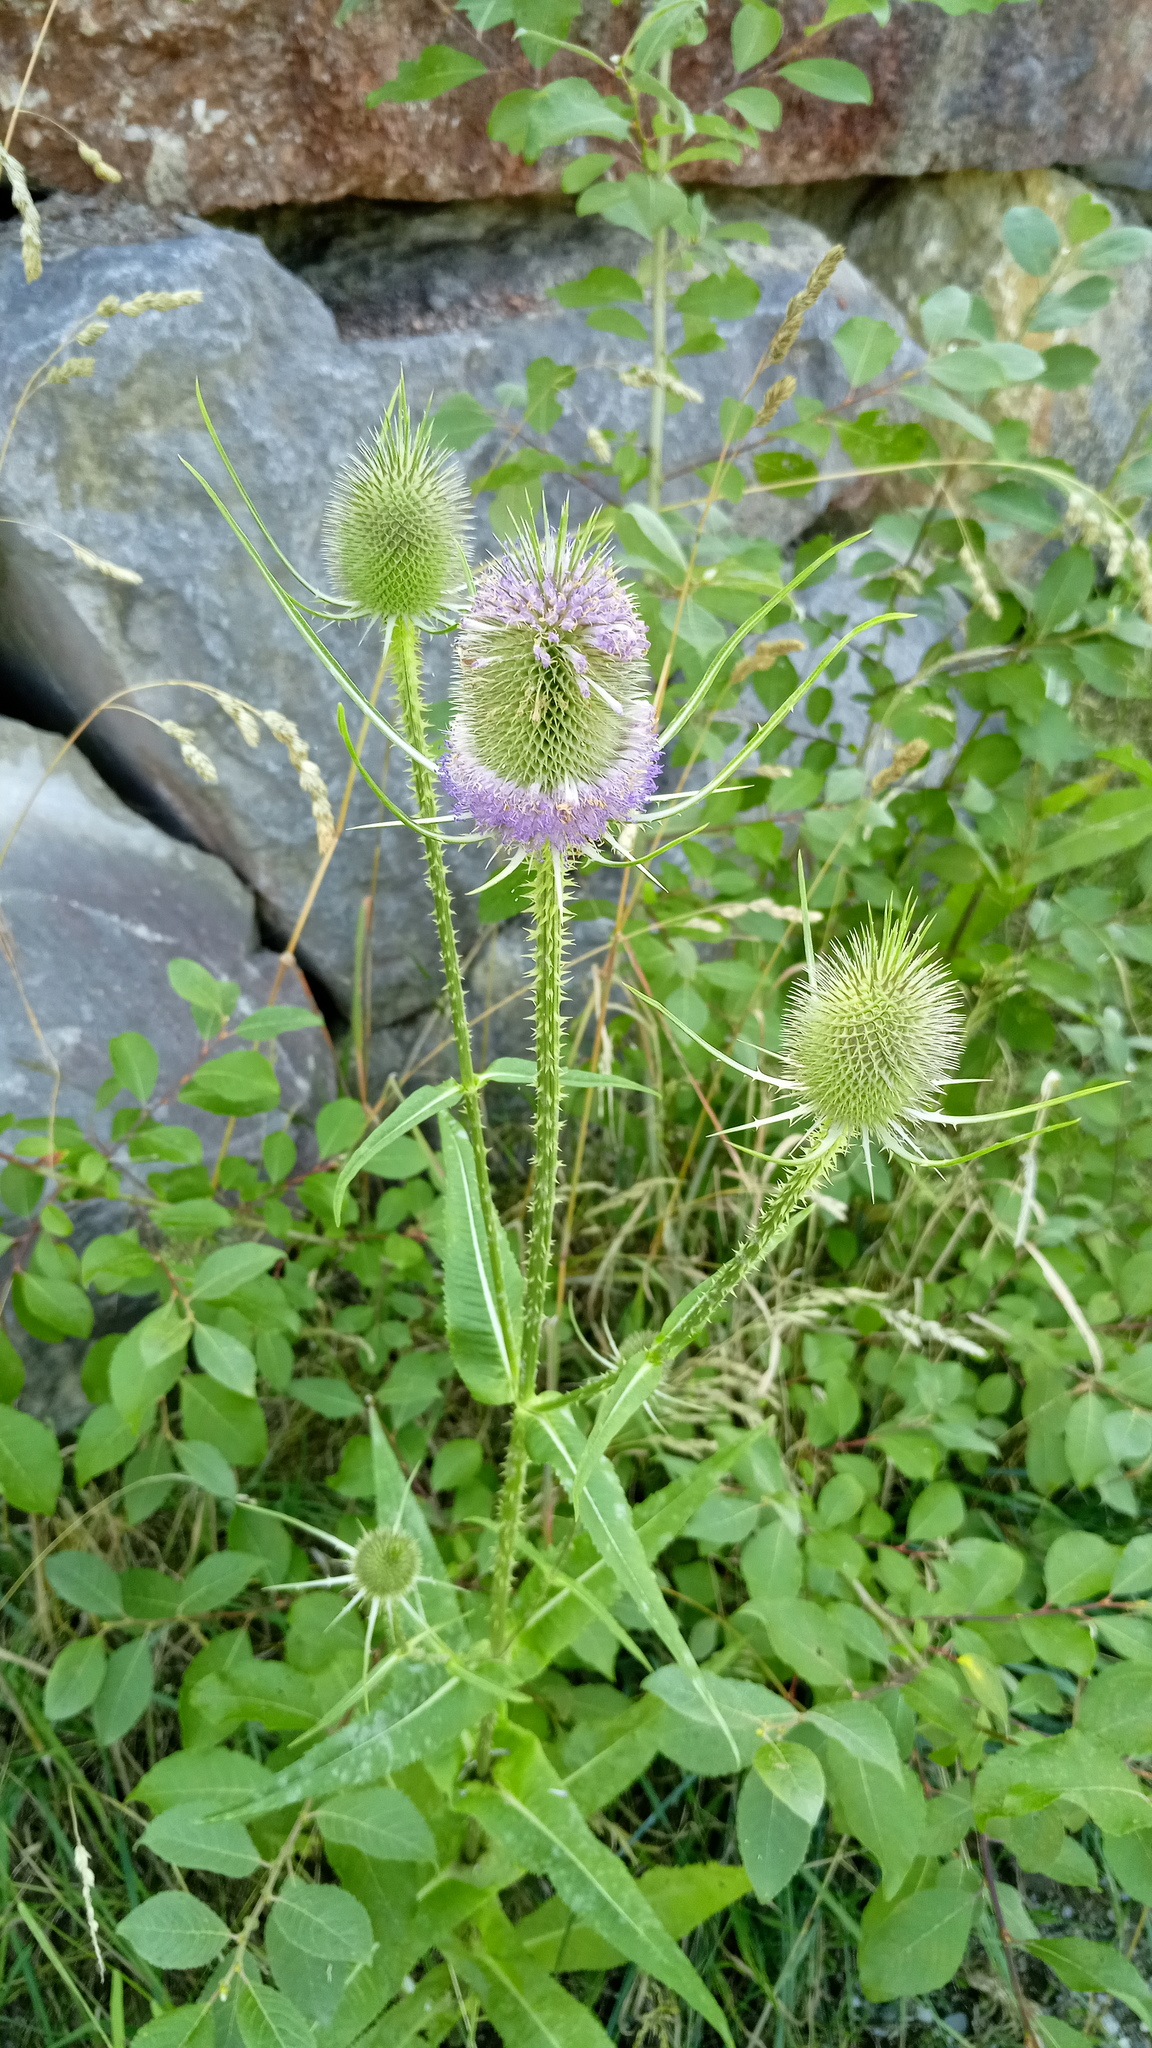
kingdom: Plantae
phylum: Tracheophyta
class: Magnoliopsida
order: Dipsacales
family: Caprifoliaceae
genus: Dipsacus
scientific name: Dipsacus fullonum
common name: Teasel
